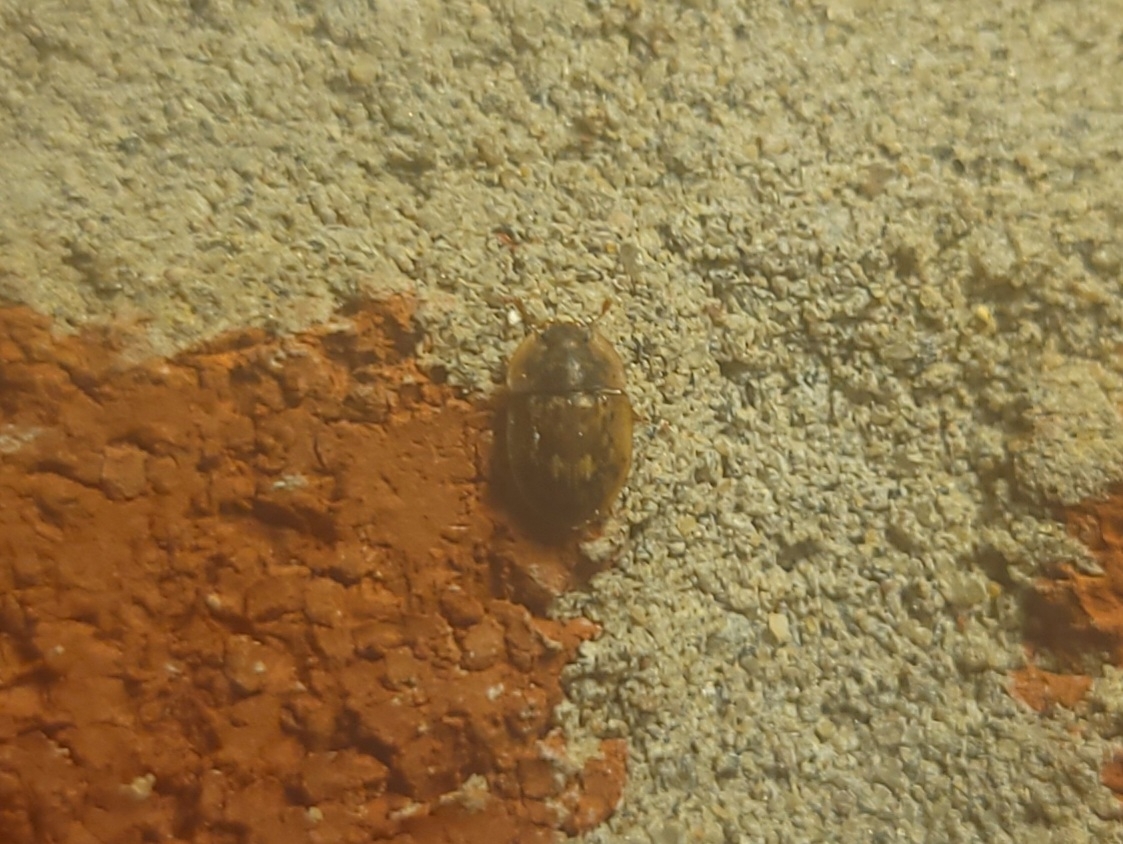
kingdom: Animalia
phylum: Arthropoda
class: Insecta
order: Coleoptera
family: Nitidulidae
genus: Lobiopa
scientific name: Lobiopa undulata
